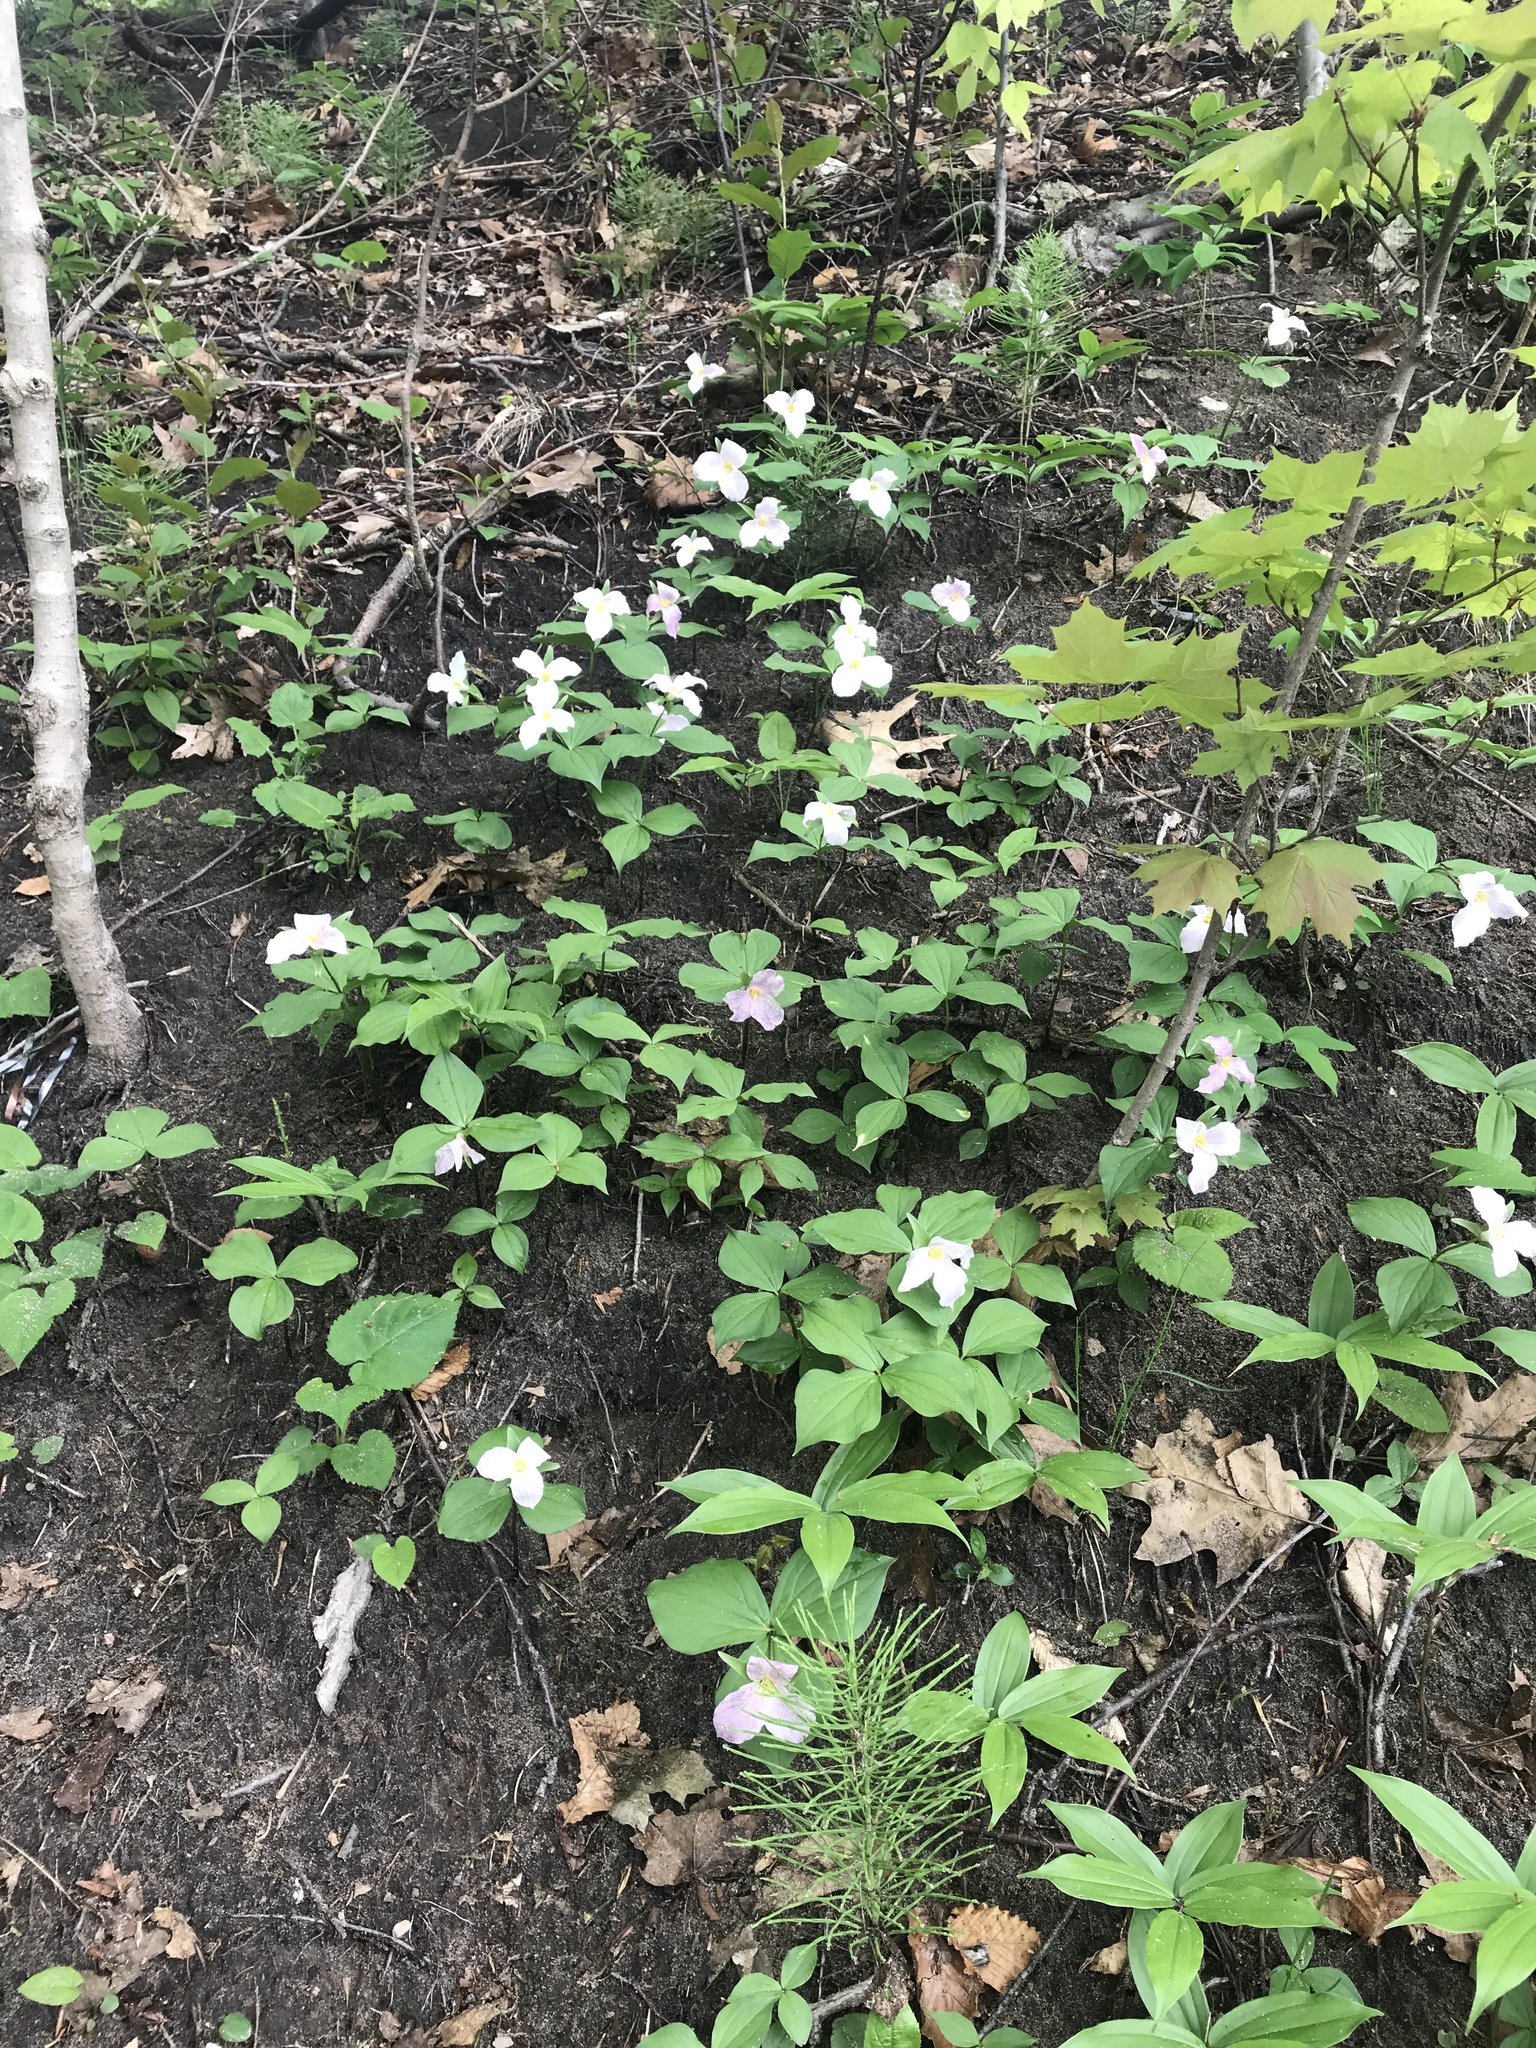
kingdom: Plantae
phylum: Tracheophyta
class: Liliopsida
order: Liliales
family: Melanthiaceae
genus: Trillium
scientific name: Trillium grandiflorum
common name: Great white trillium
